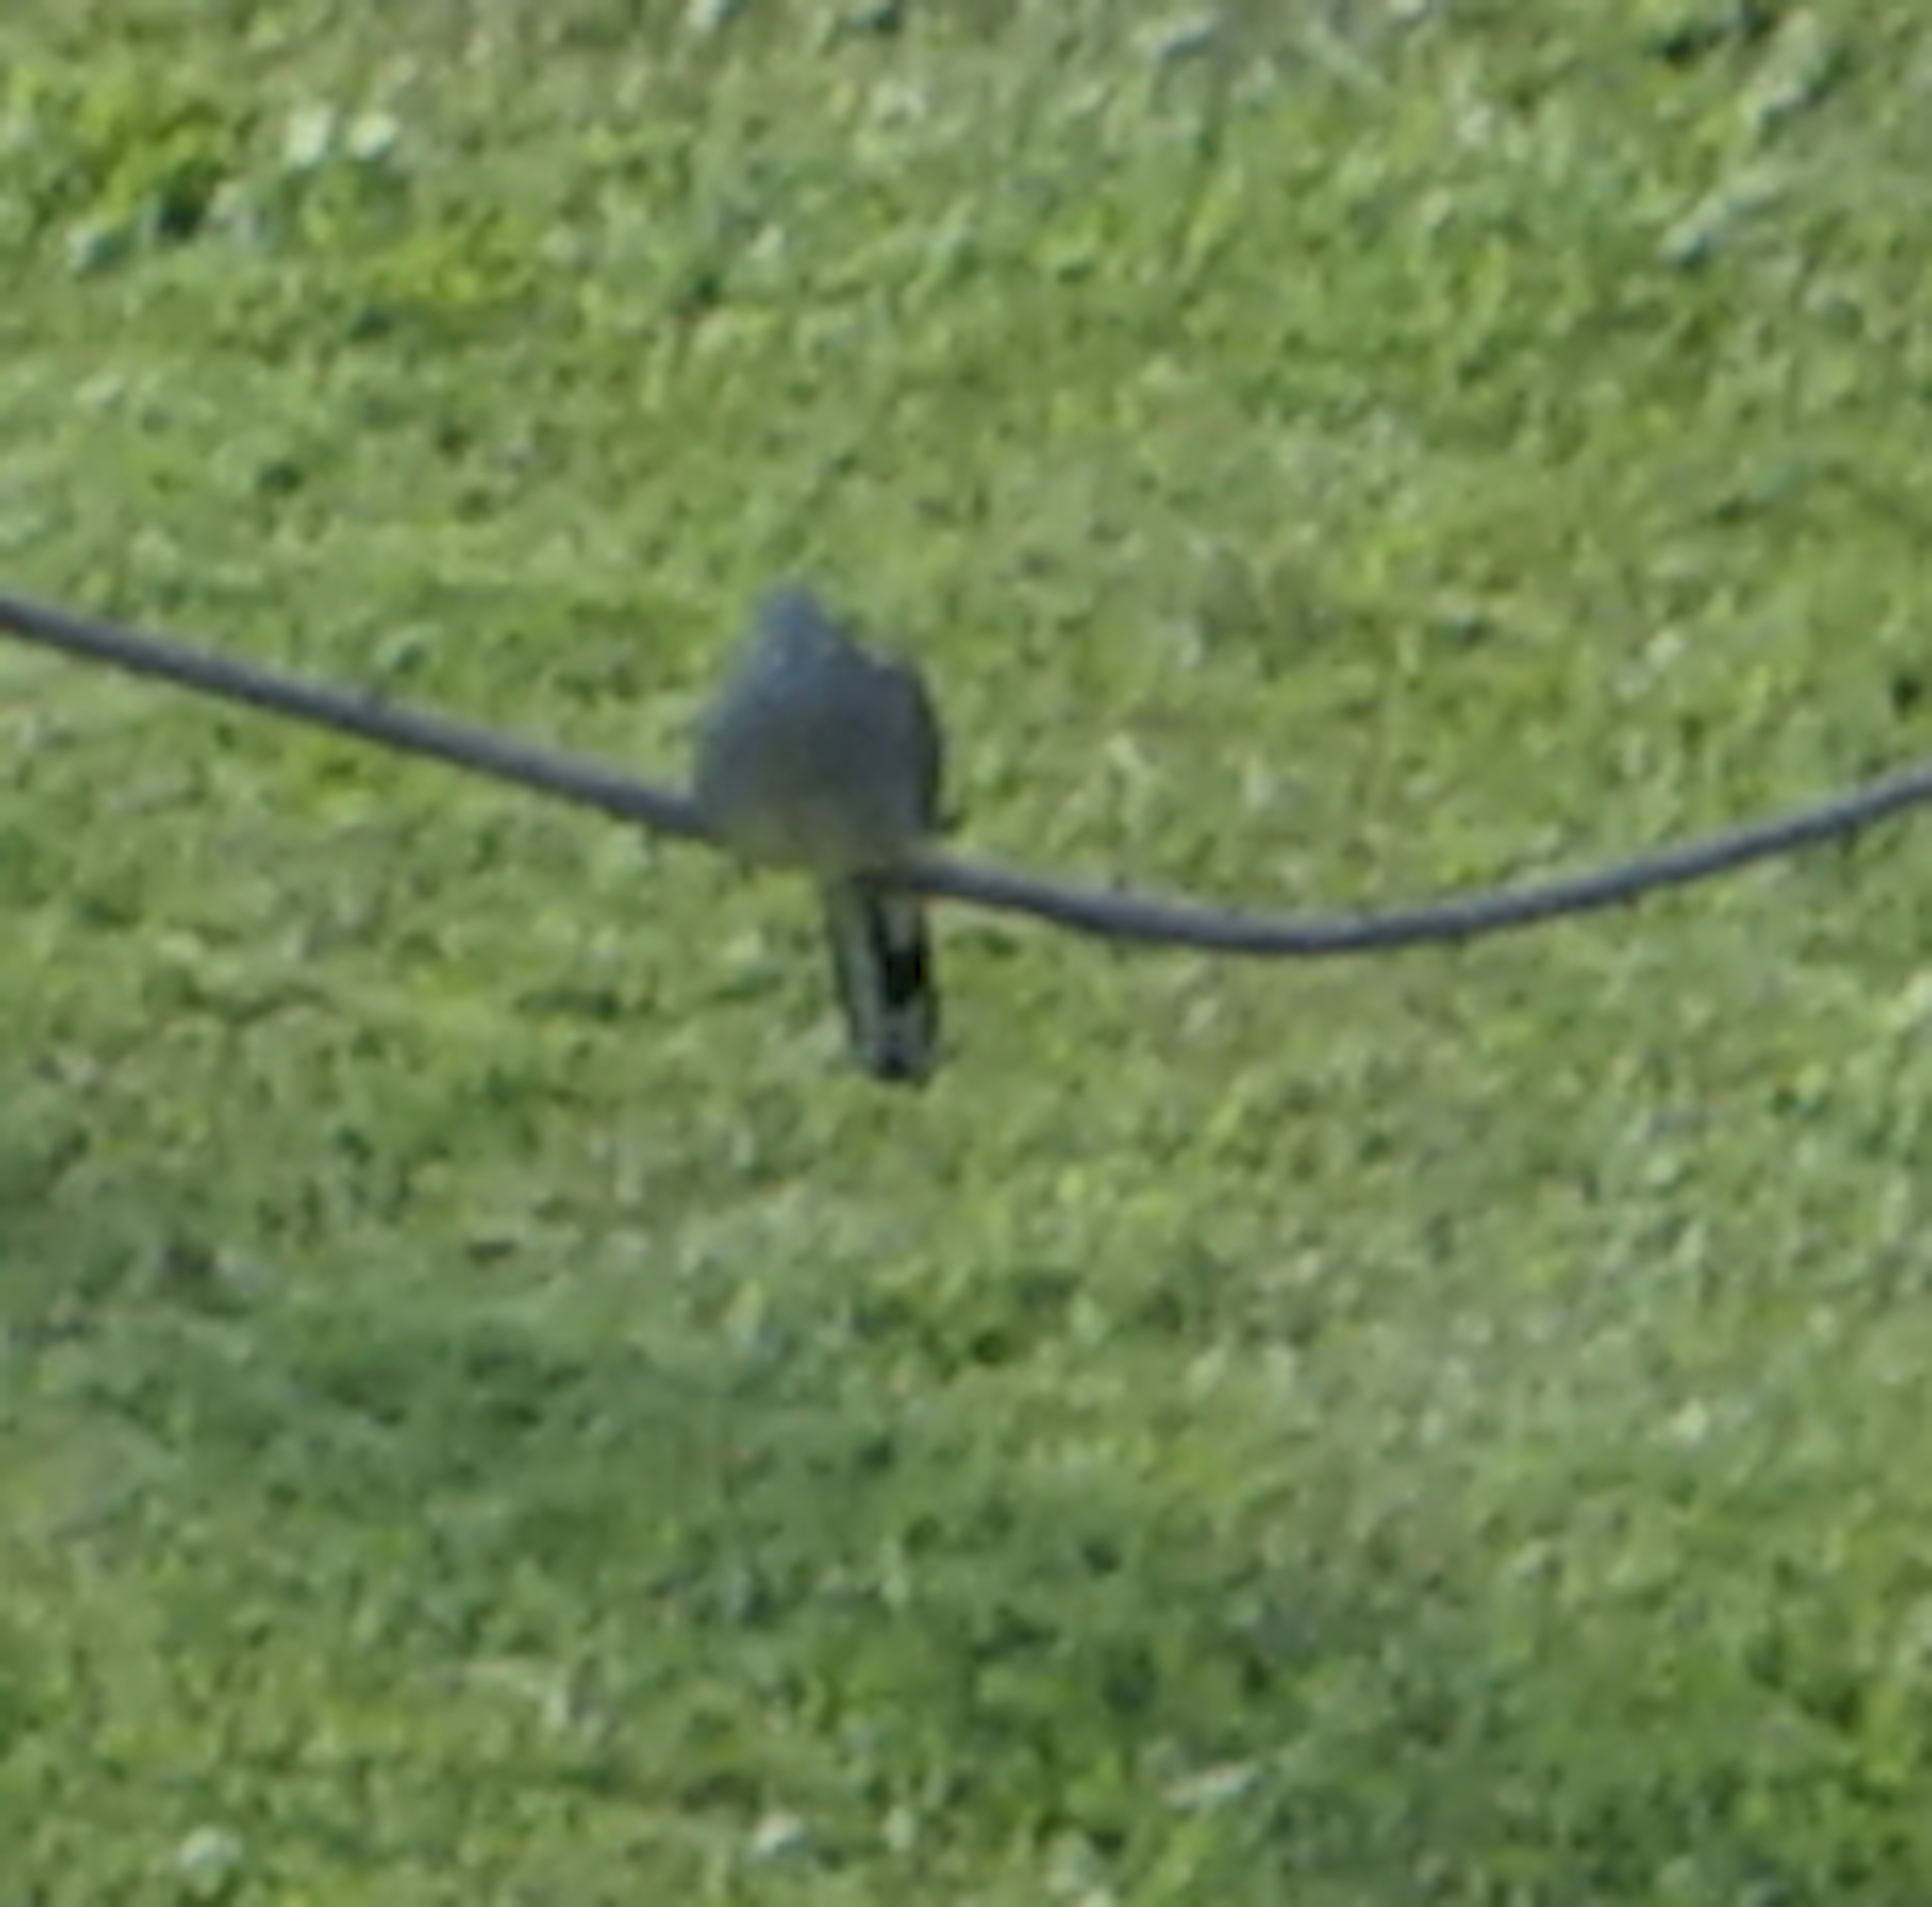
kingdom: Animalia
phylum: Chordata
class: Aves
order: Columbiformes
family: Columbidae
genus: Geopelia
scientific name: Geopelia striata
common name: Zebra dove
